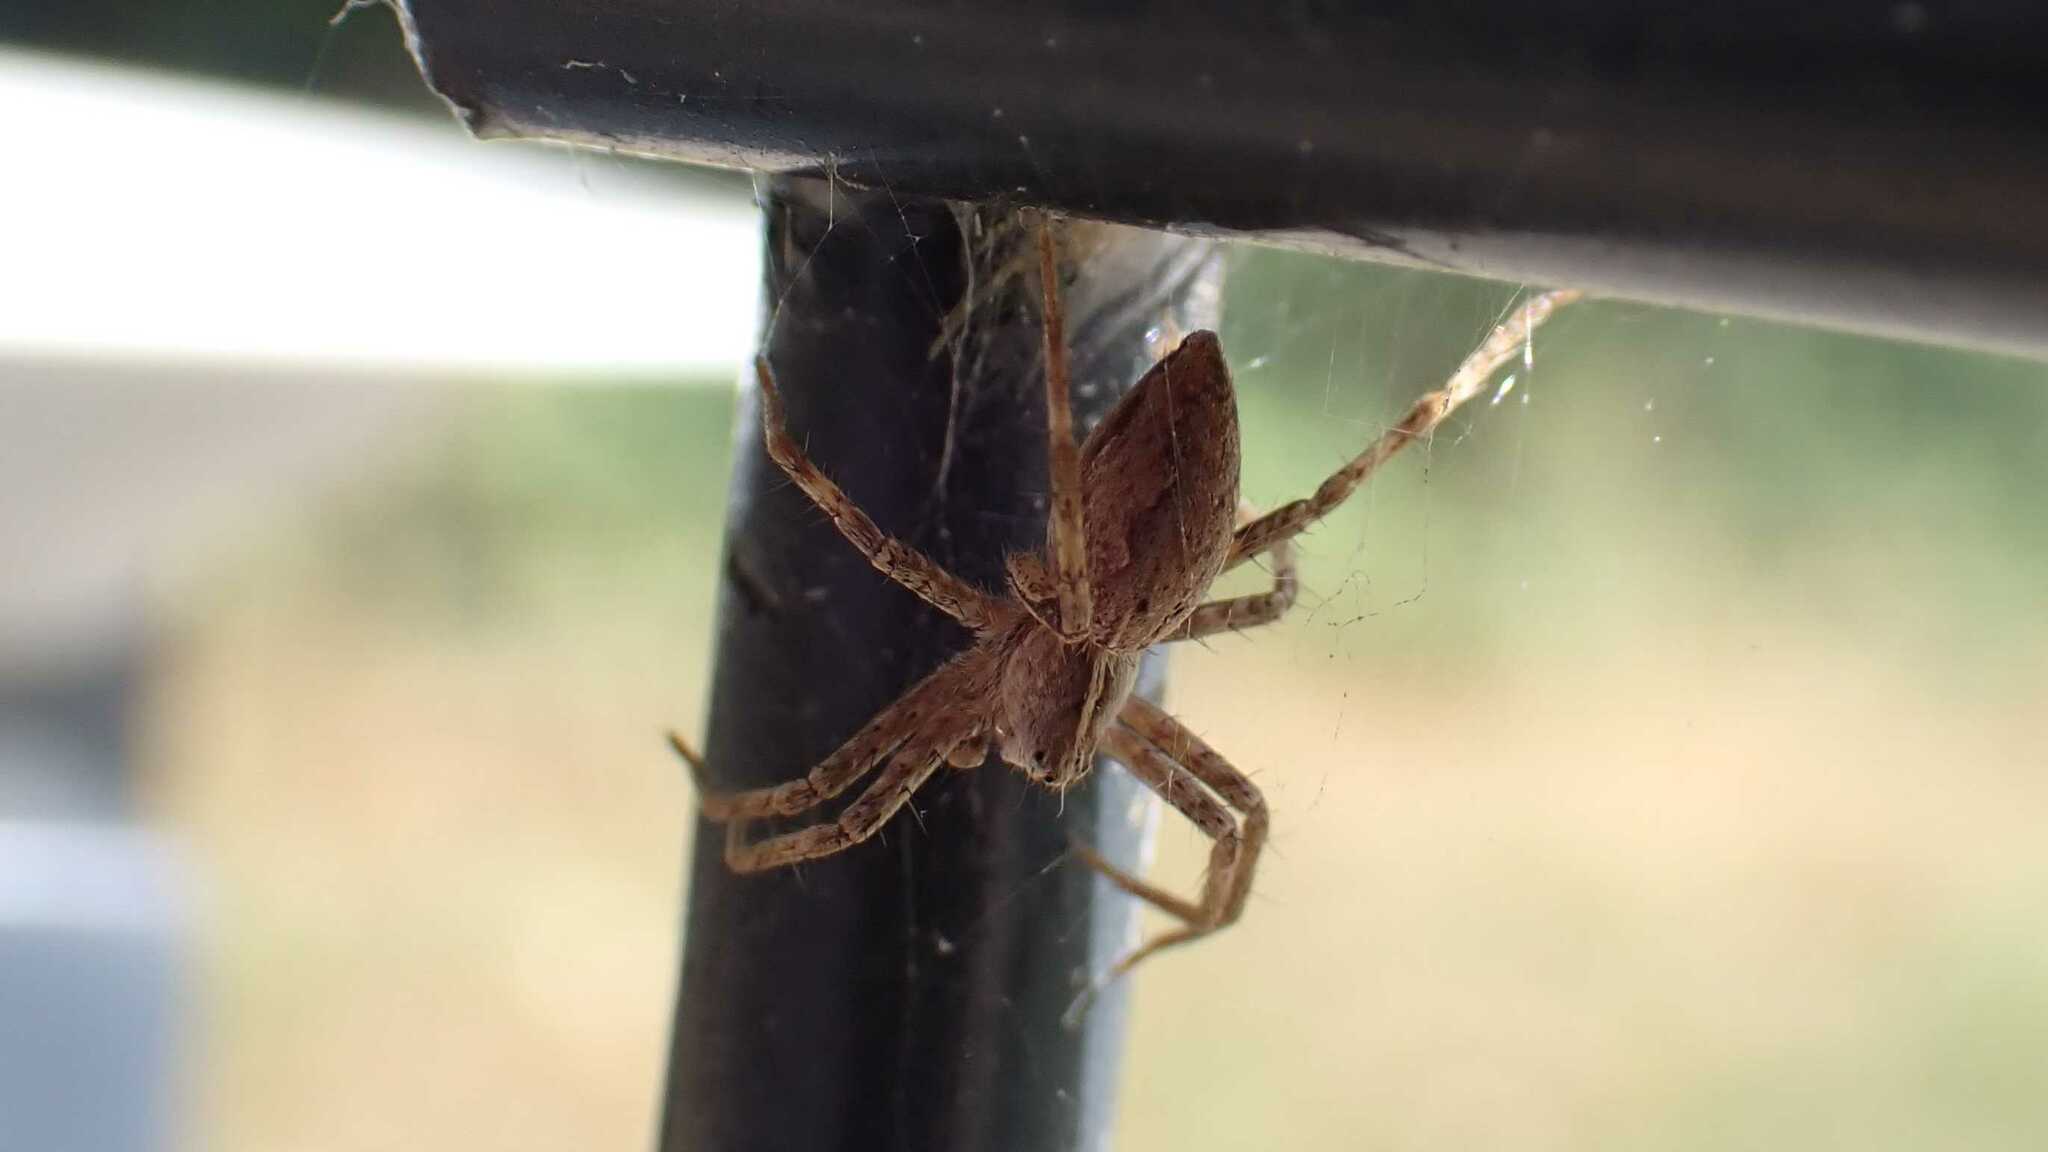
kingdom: Animalia
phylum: Arthropoda
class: Arachnida
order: Araneae
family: Pisauridae
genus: Pisaura
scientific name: Pisaura mirabilis
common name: Tent spider
